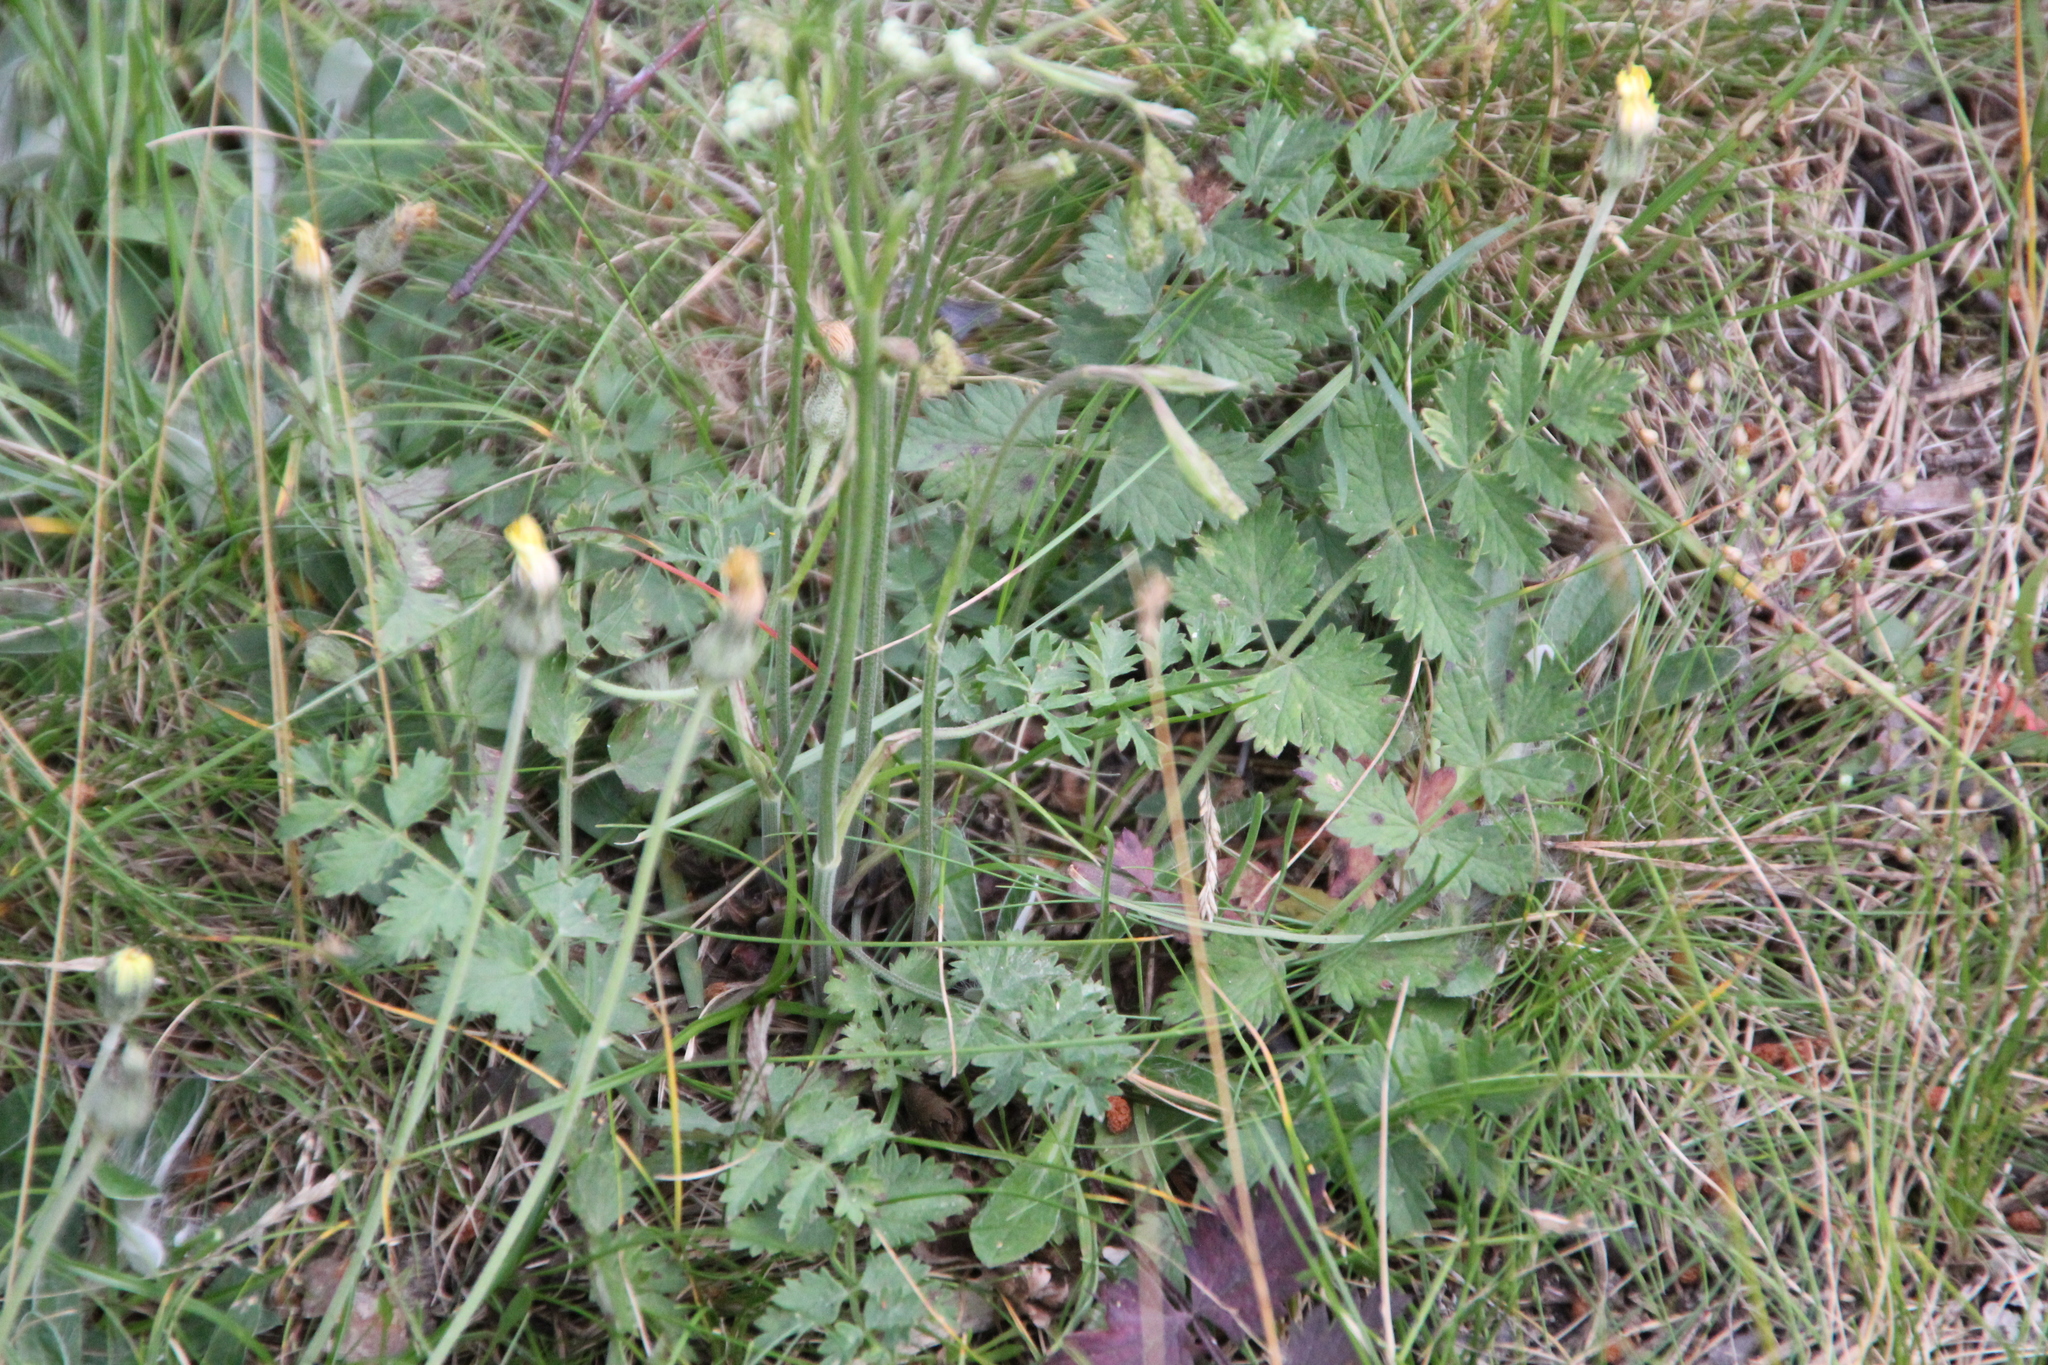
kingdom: Plantae
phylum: Tracheophyta
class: Magnoliopsida
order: Apiales
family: Apiaceae
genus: Pimpinella
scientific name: Pimpinella saxifraga
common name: Burnet-saxifrage
